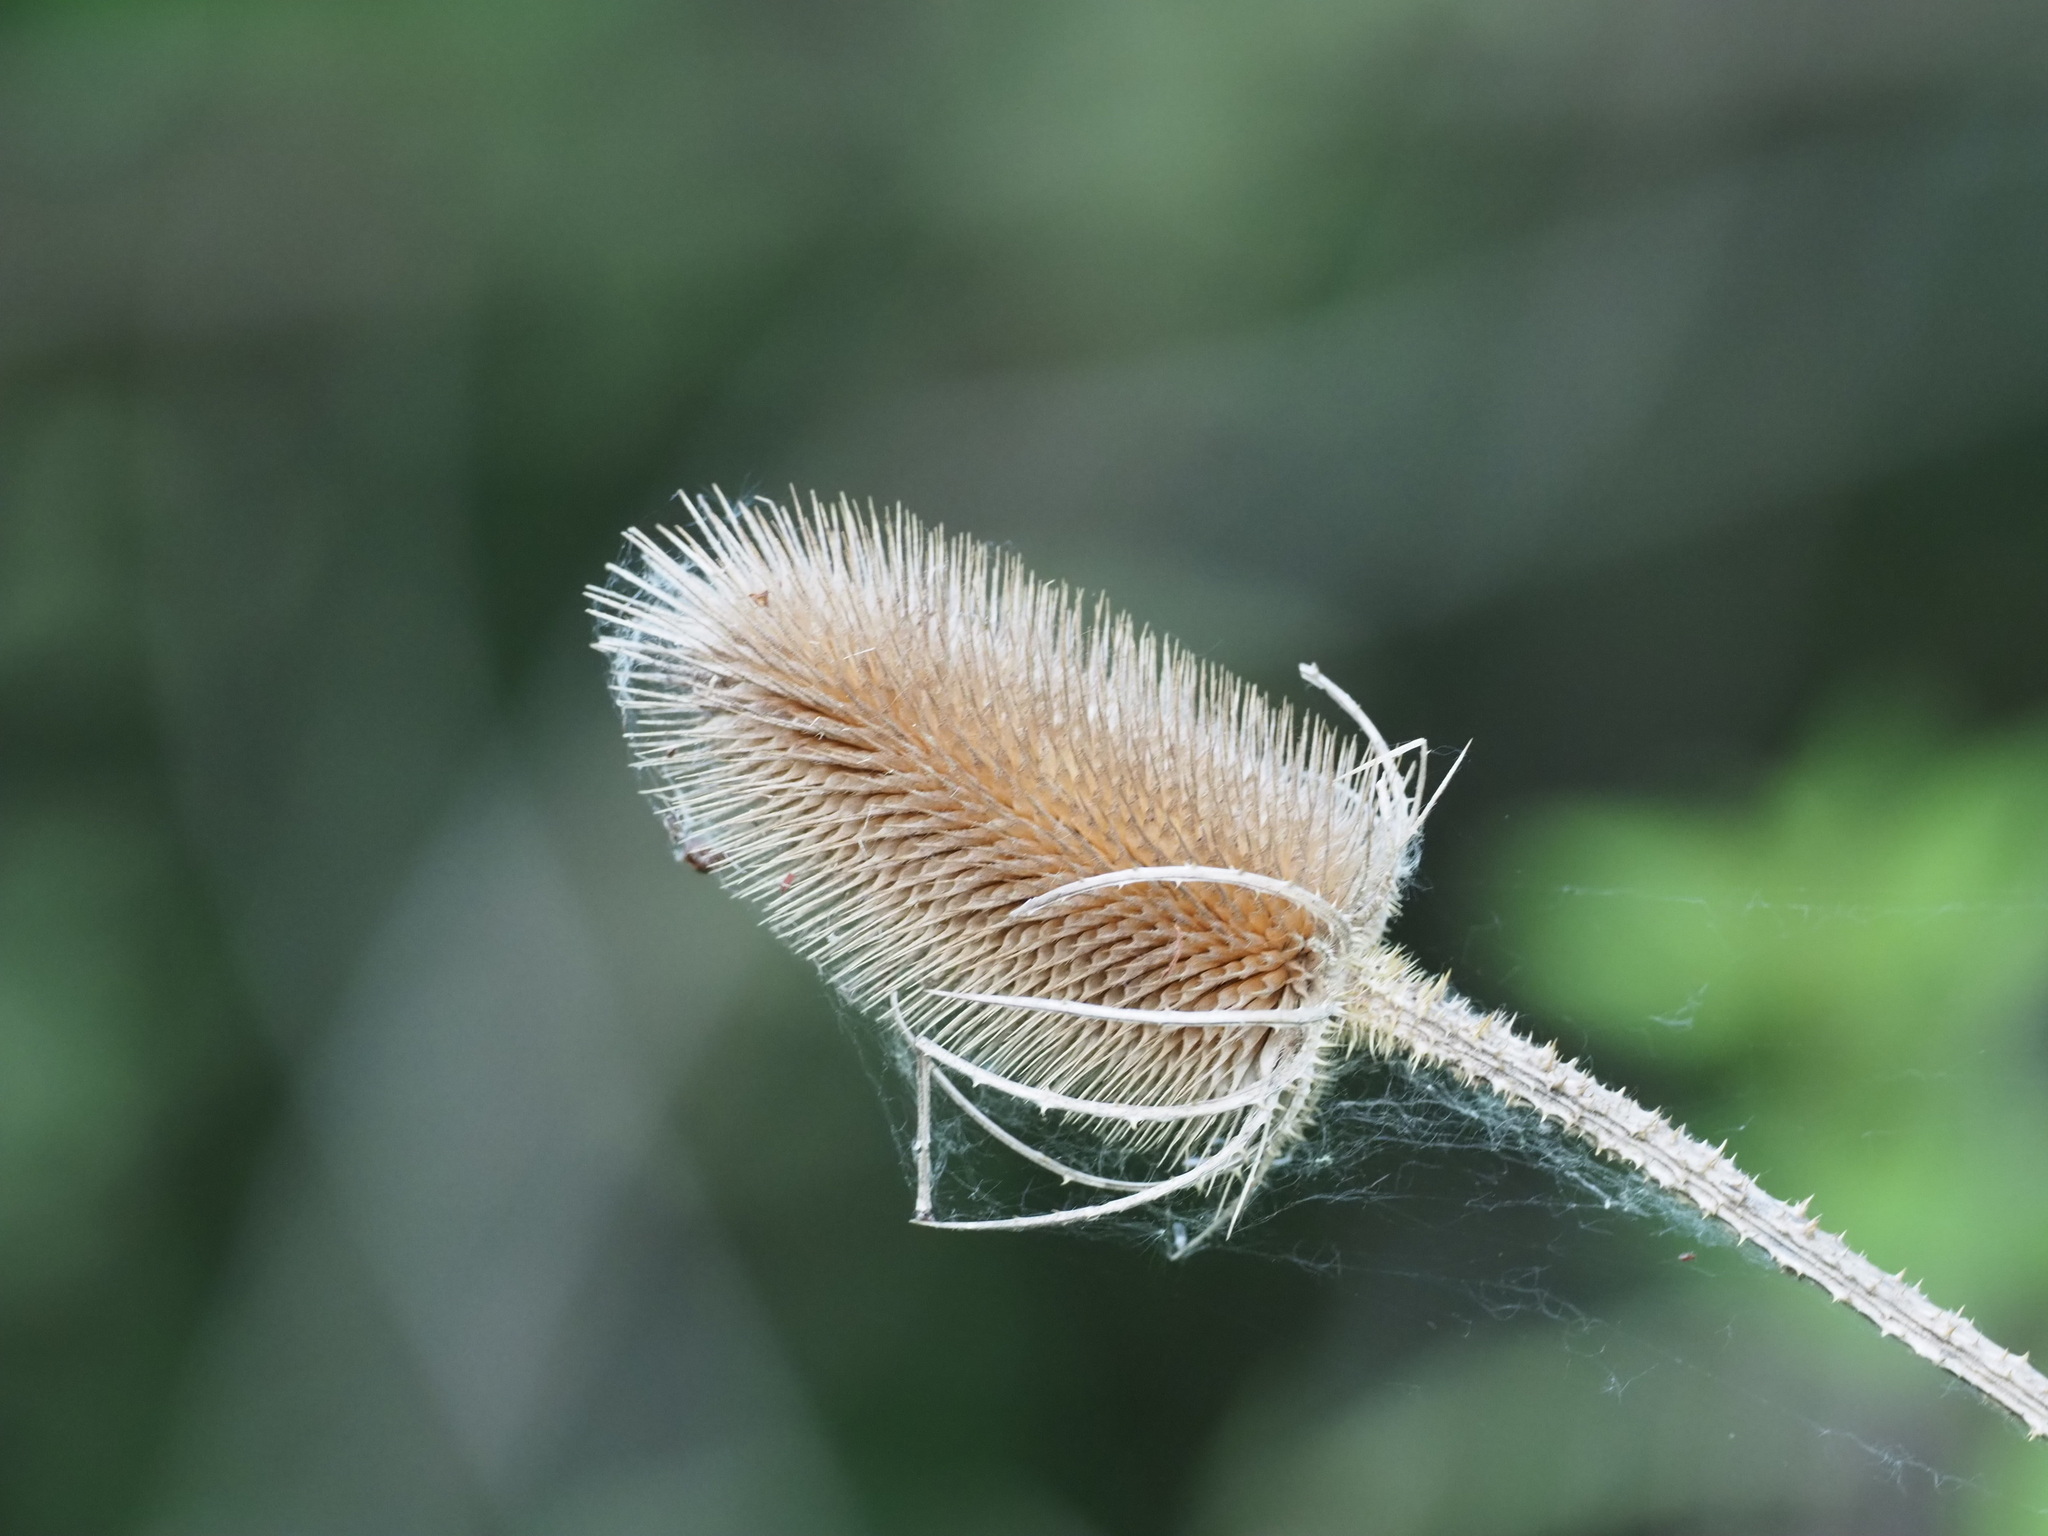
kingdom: Plantae
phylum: Tracheophyta
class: Magnoliopsida
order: Dipsacales
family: Caprifoliaceae
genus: Dipsacus
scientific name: Dipsacus fullonum
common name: Teasel
